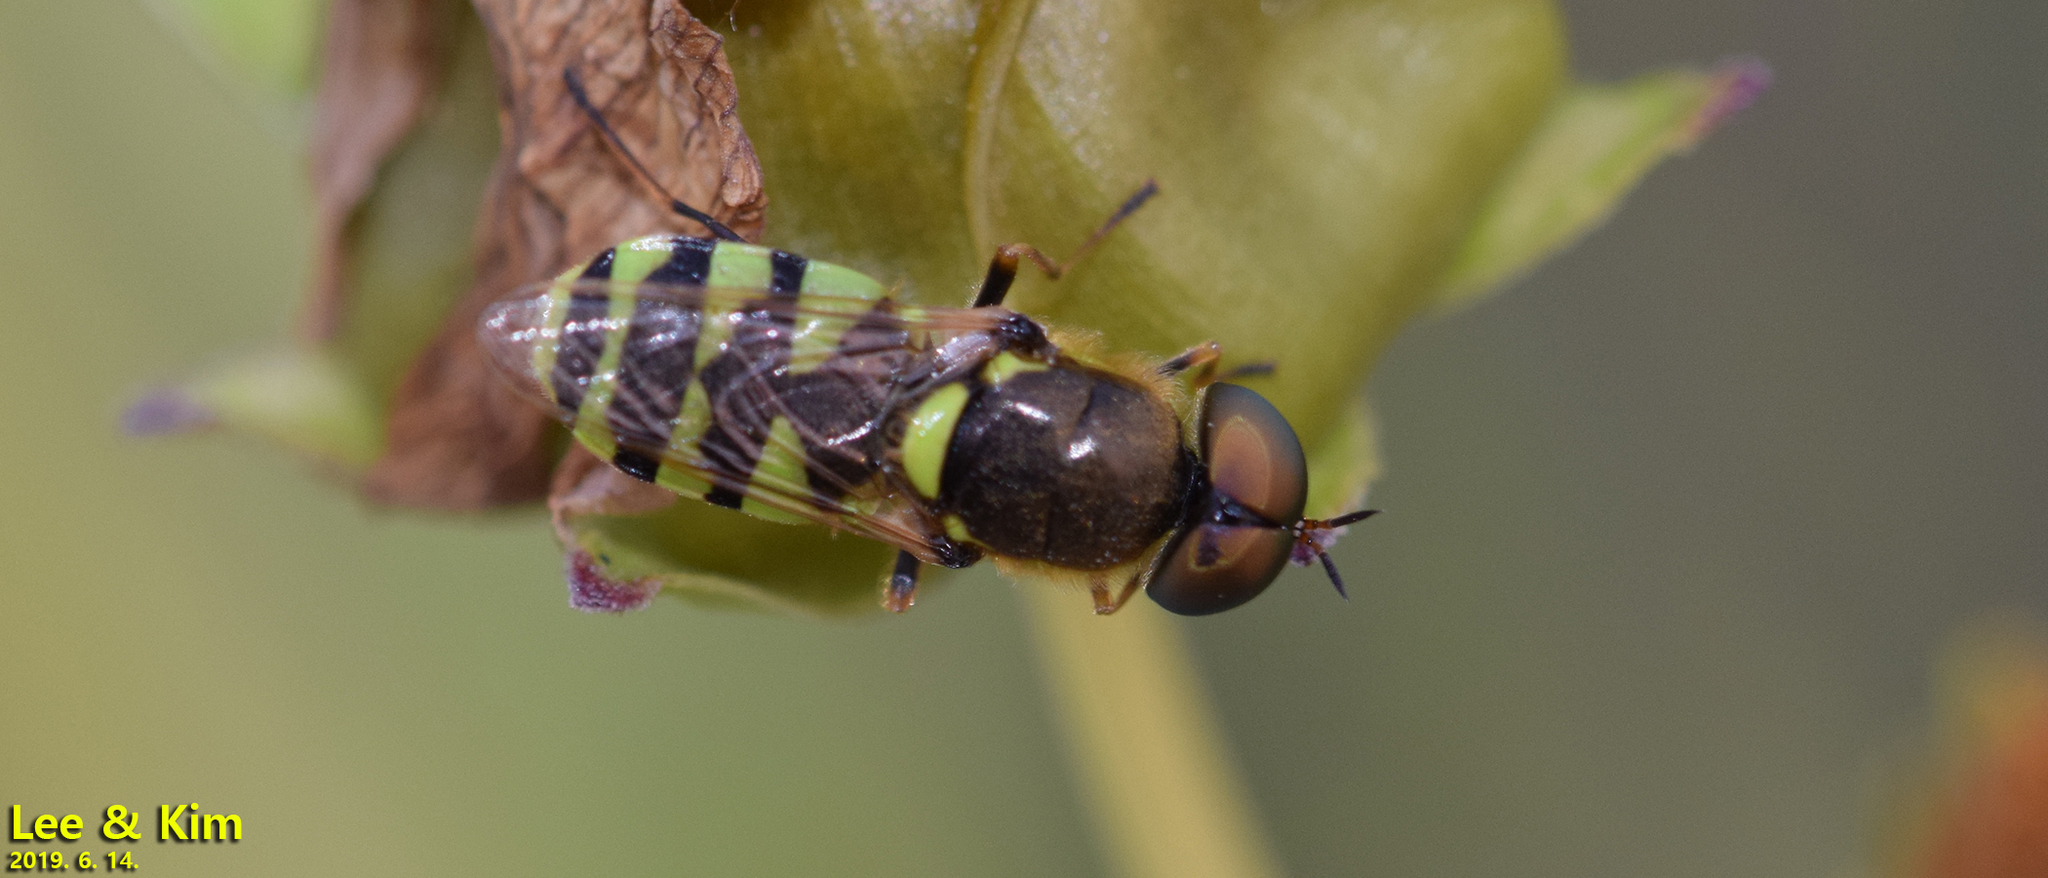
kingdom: Animalia
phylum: Arthropoda
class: Insecta
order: Diptera
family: Stratiomyidae
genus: Odontomyia
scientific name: Odontomyia garatas
